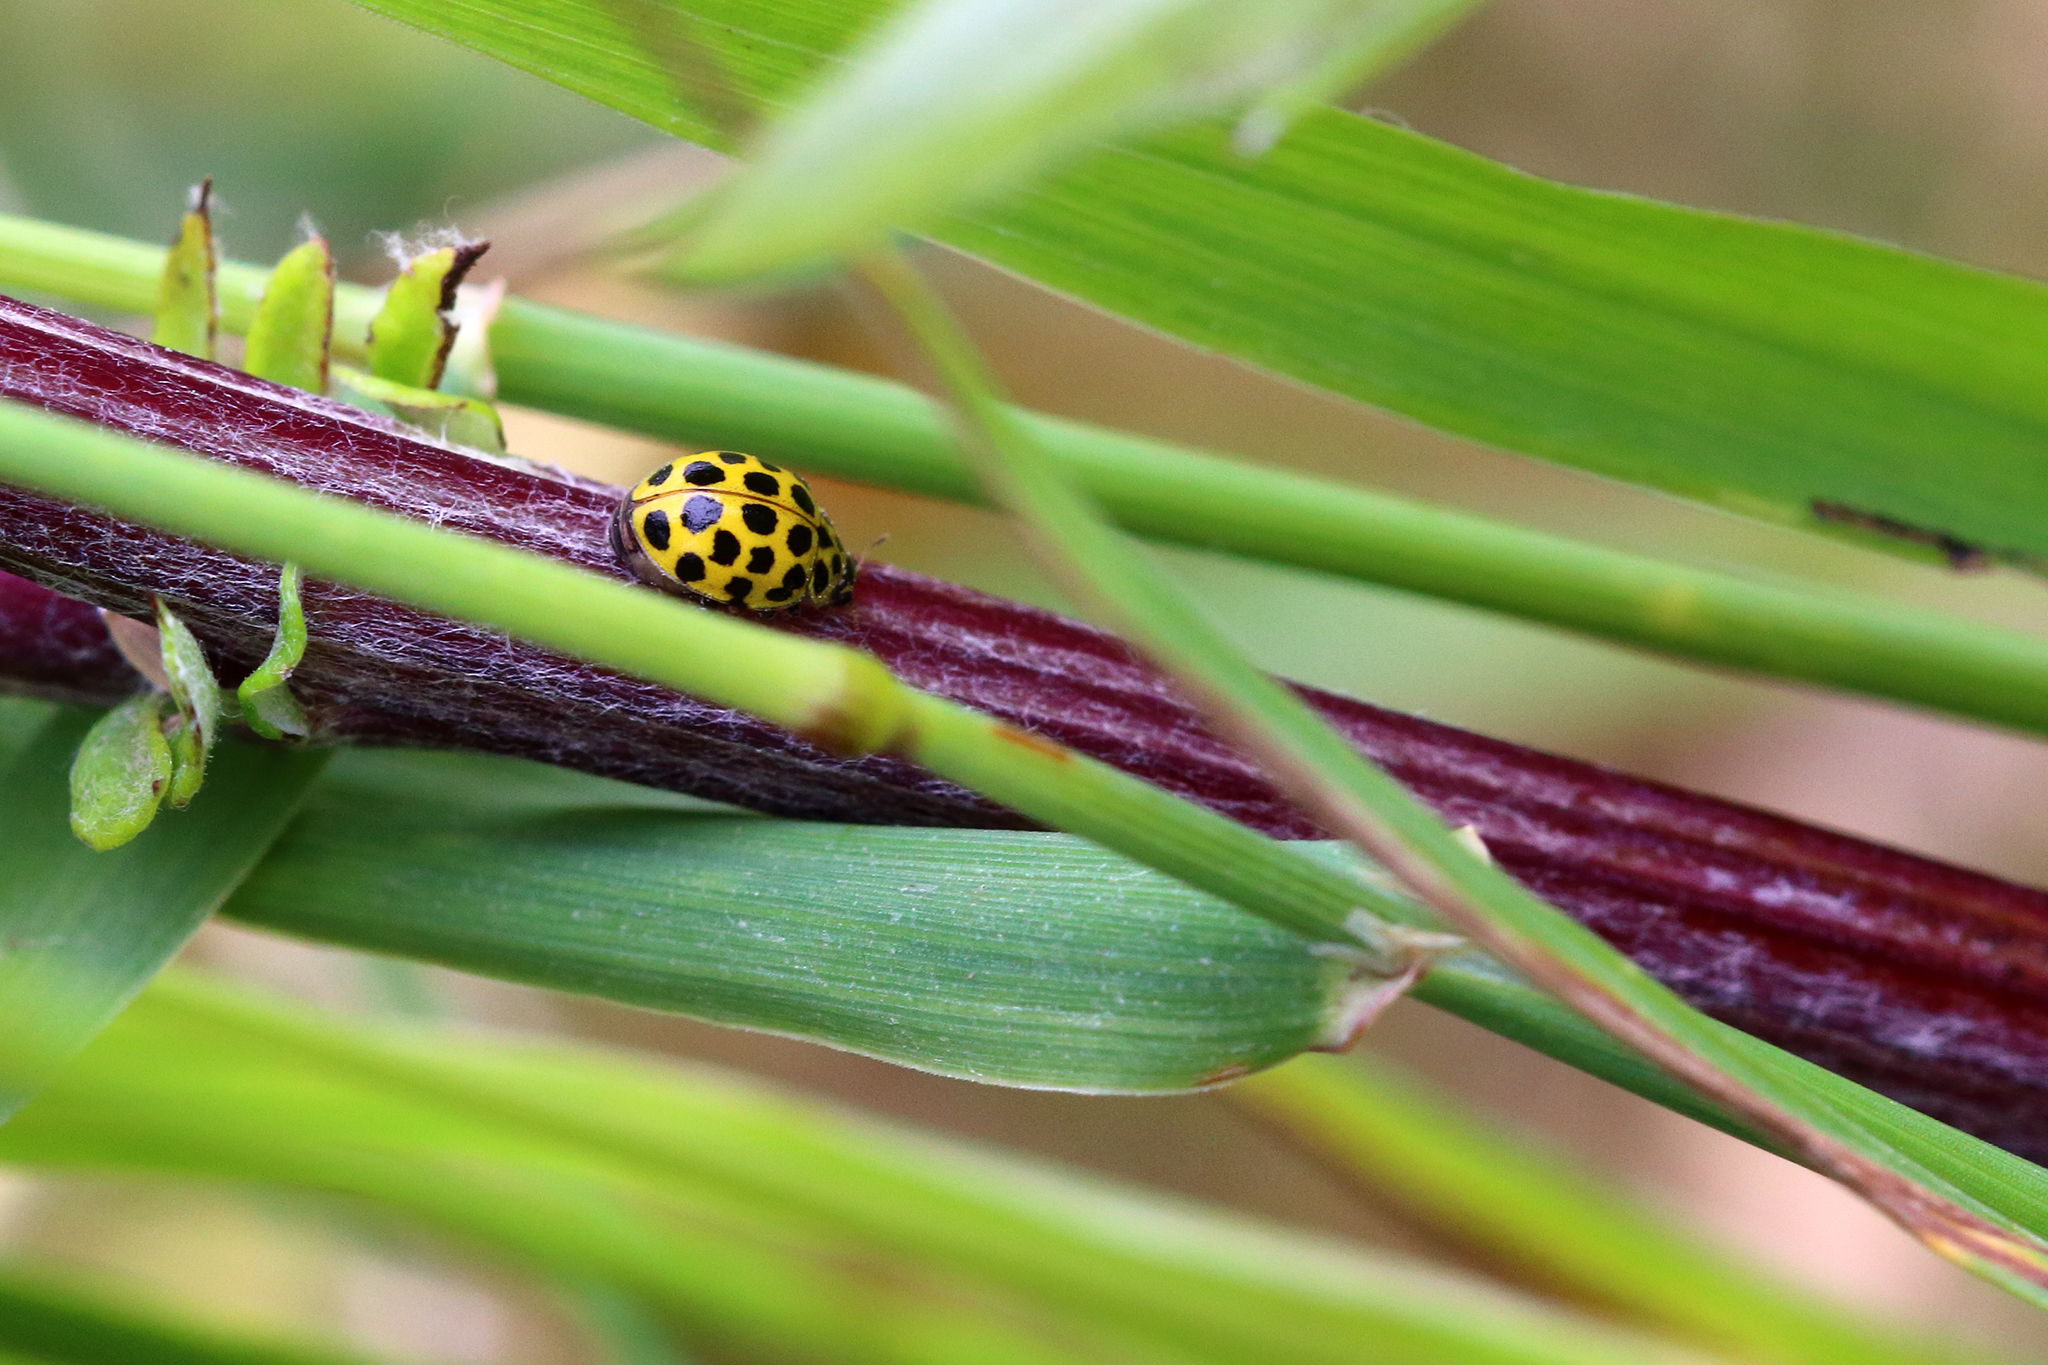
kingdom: Animalia
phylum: Arthropoda
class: Insecta
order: Coleoptera
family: Coccinellidae
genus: Psyllobora
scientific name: Psyllobora vigintiduopunctata
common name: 22-spot ladybird
